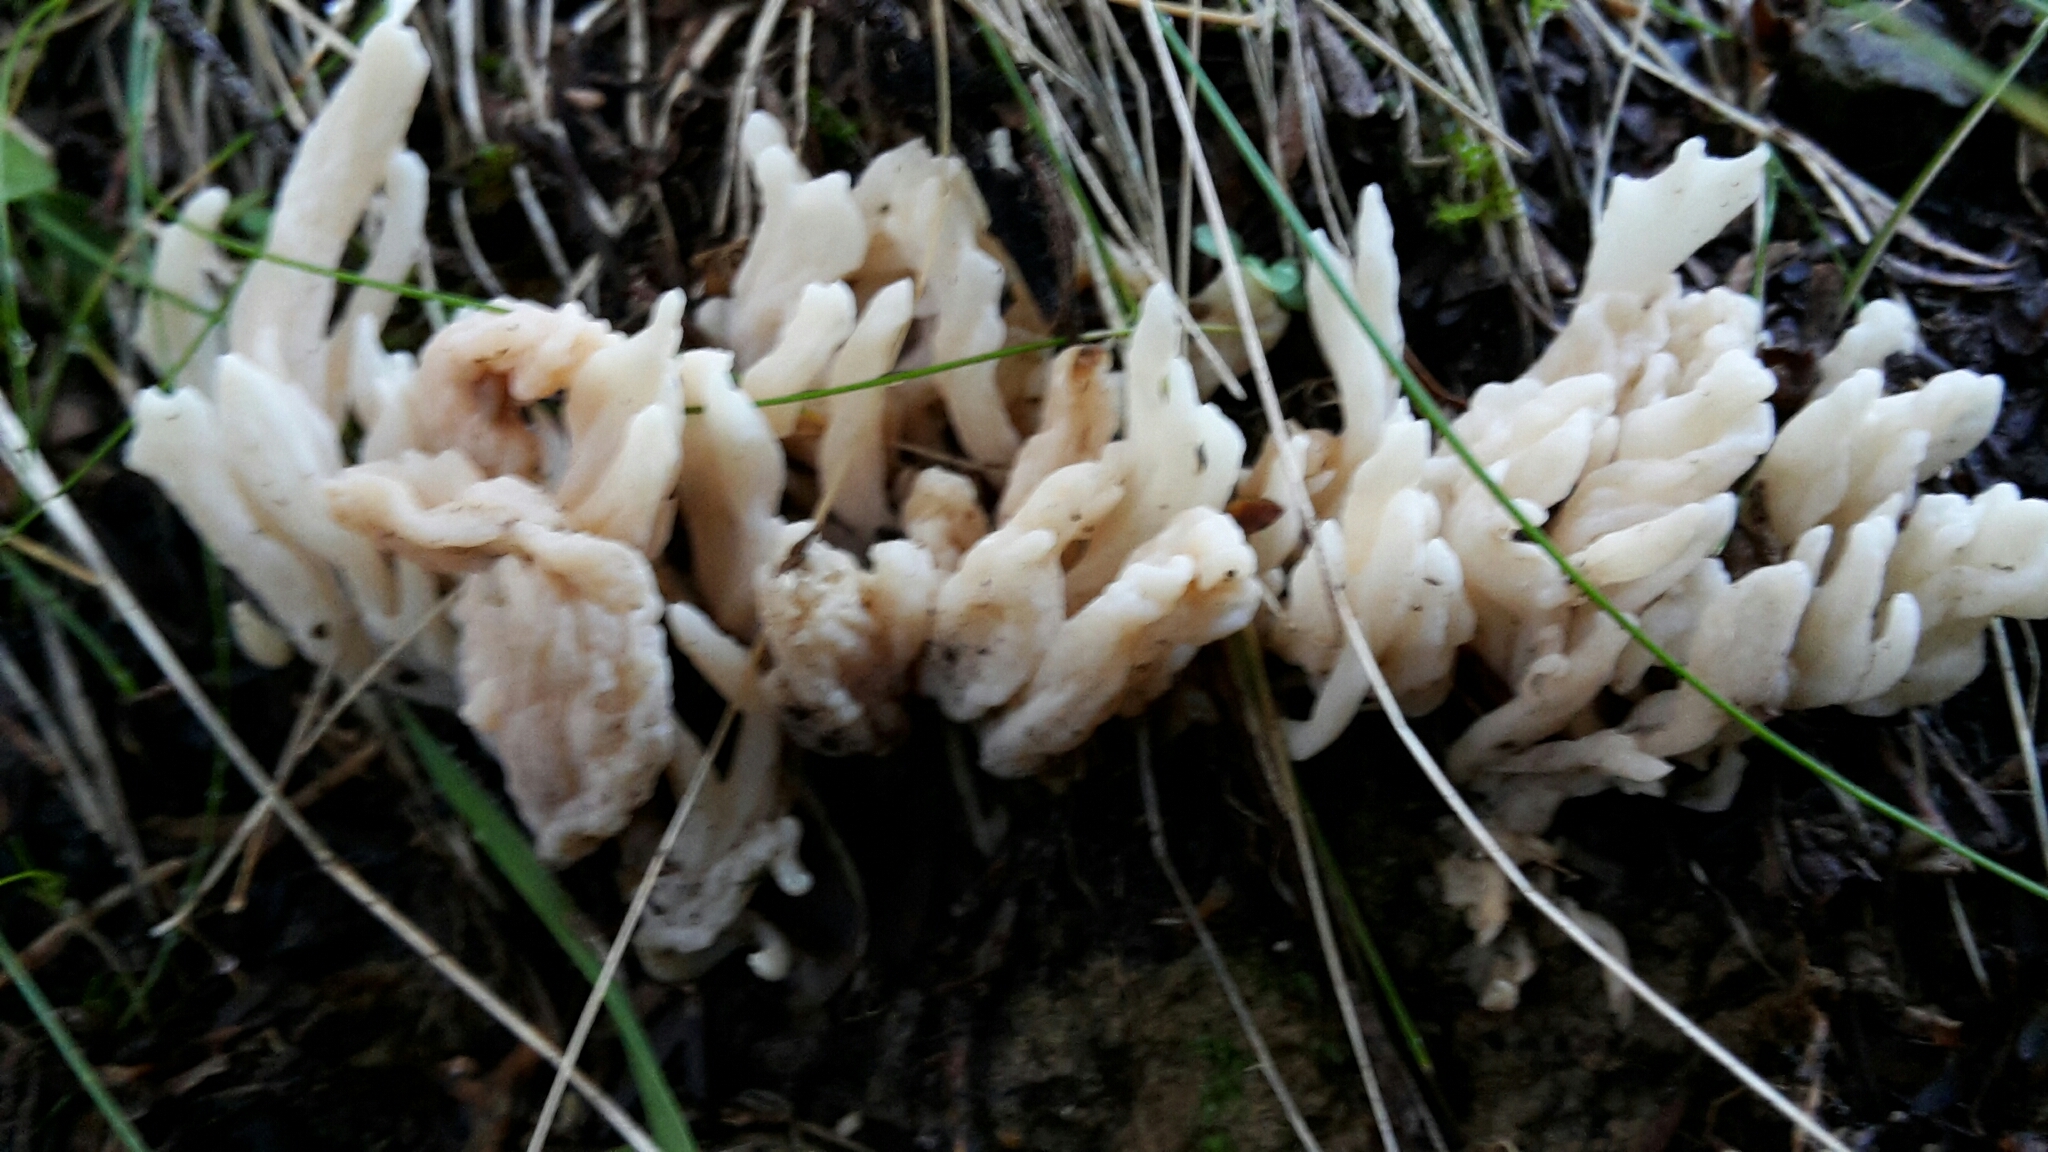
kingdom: Fungi
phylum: Basidiomycota
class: Agaricomycetes
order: Cantharellales
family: Hydnaceae
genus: Clavulina
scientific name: Clavulina rugosa
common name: Wrinkled club
